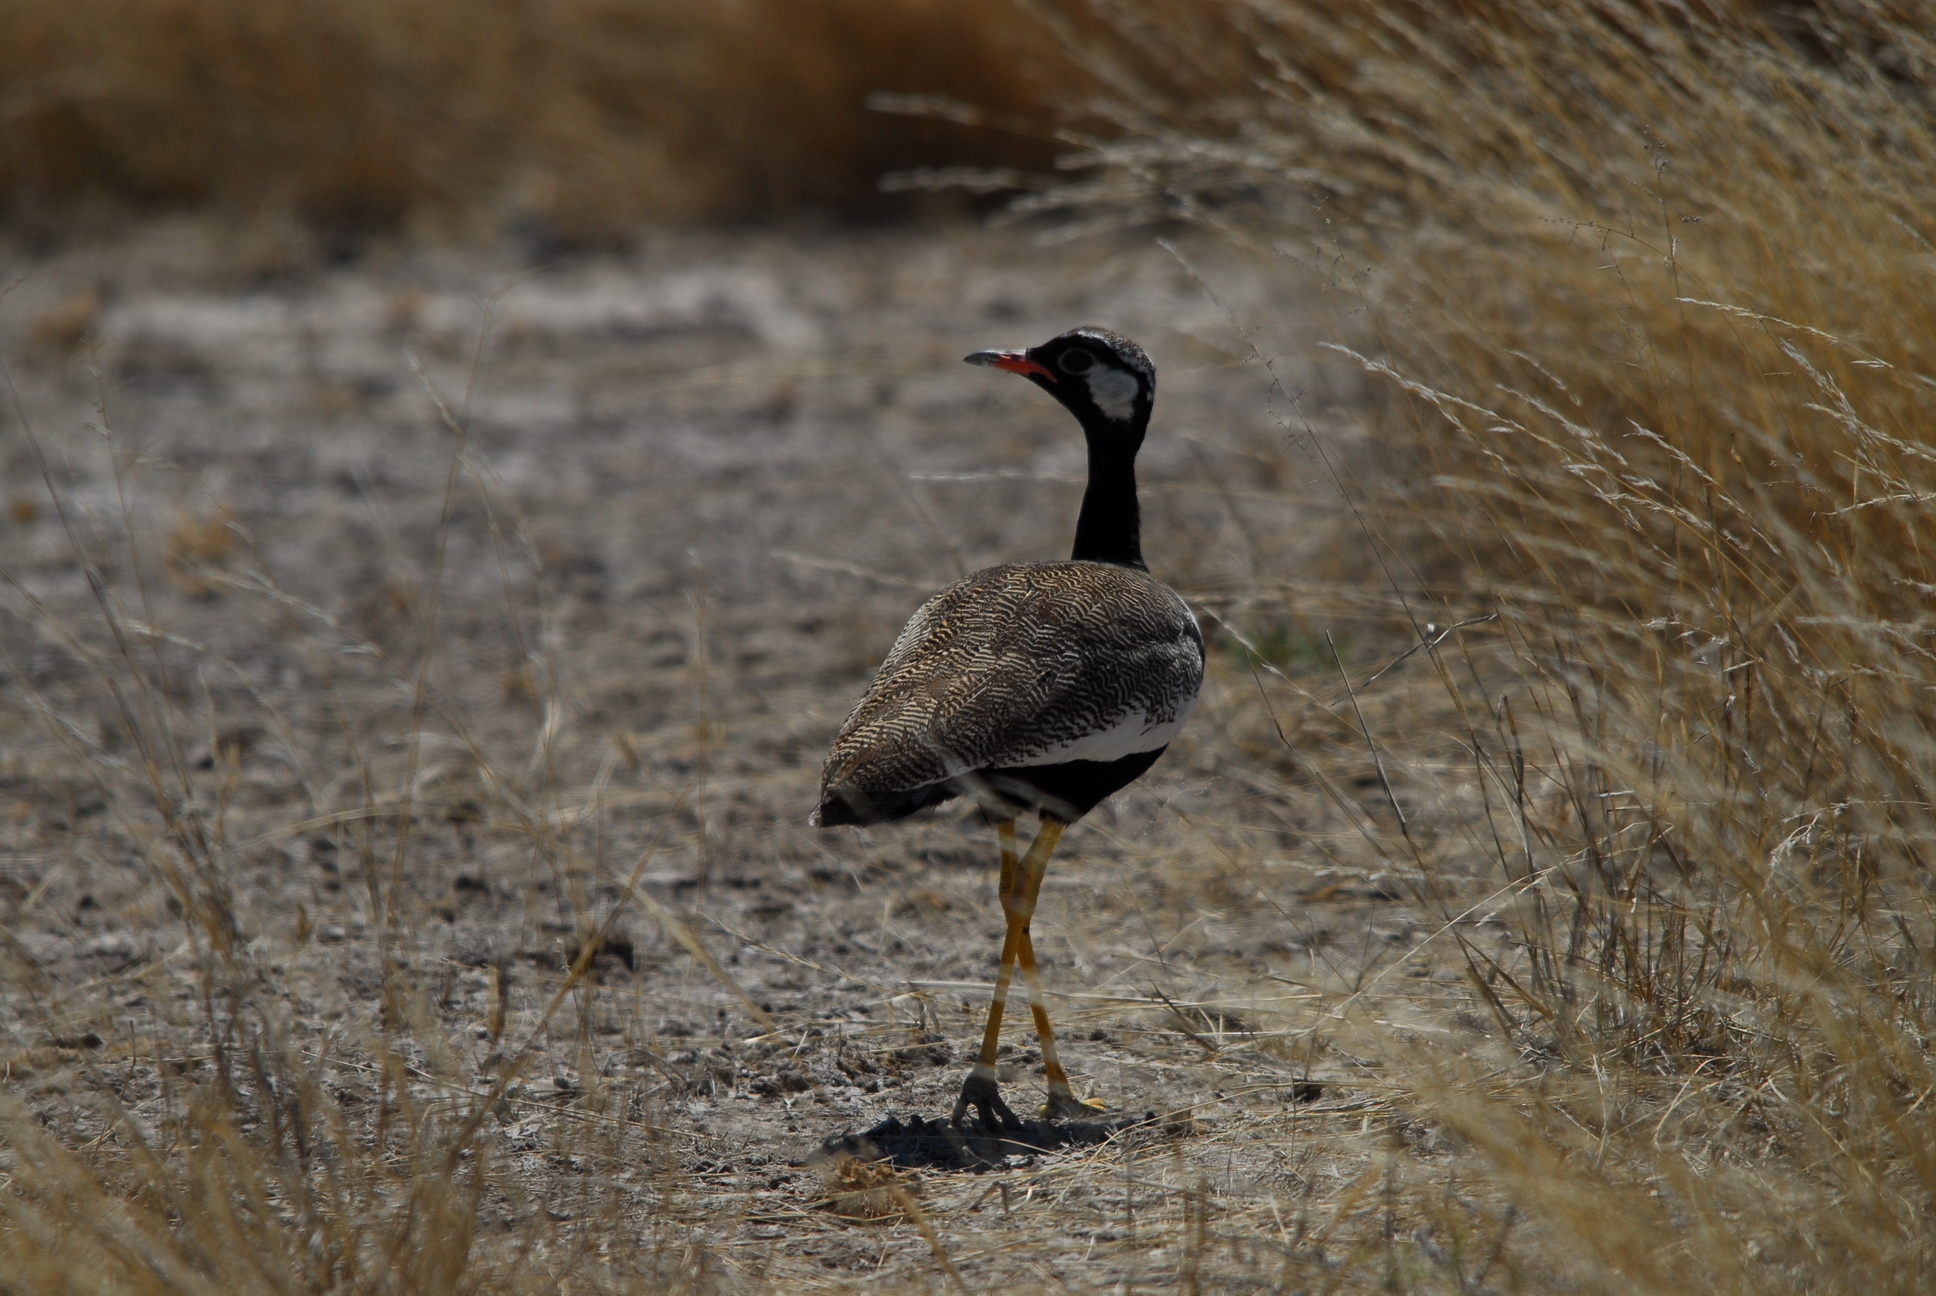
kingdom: Animalia
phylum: Chordata
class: Aves
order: Otidiformes
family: Otididae
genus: Afrotis
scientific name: Afrotis afraoides
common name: Northern black korhaan
